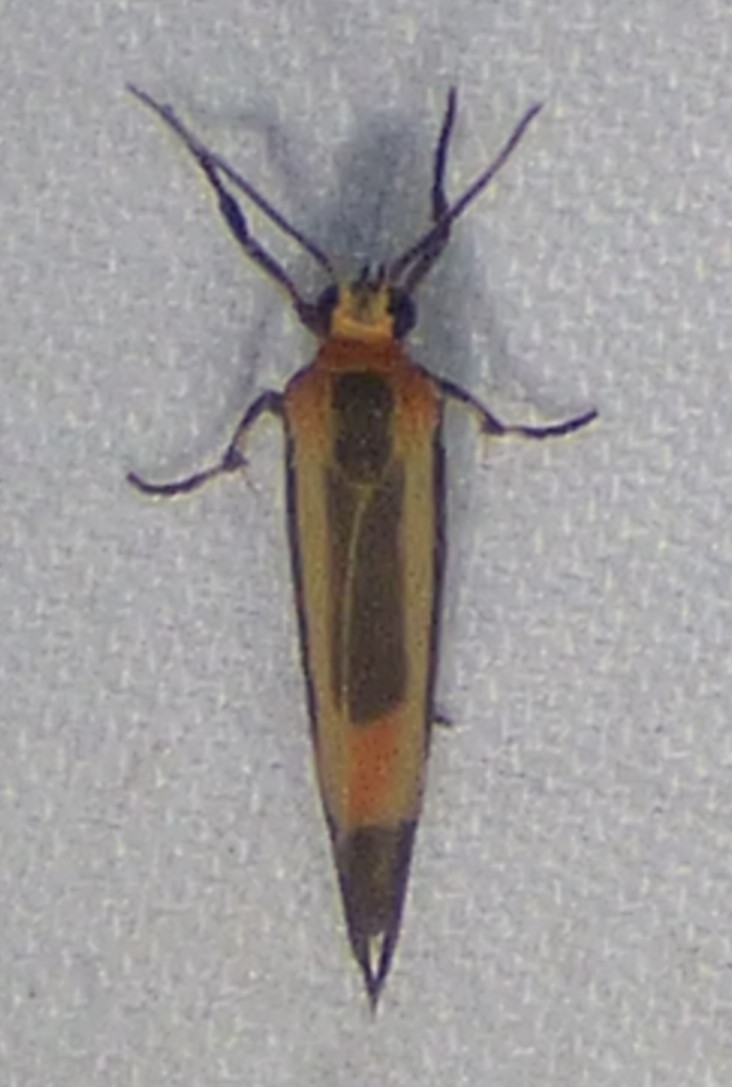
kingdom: Animalia
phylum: Arthropoda
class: Insecta
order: Lepidoptera
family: Erebidae
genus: Cisthene
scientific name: Cisthene packardii
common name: Packard's lichen moth
